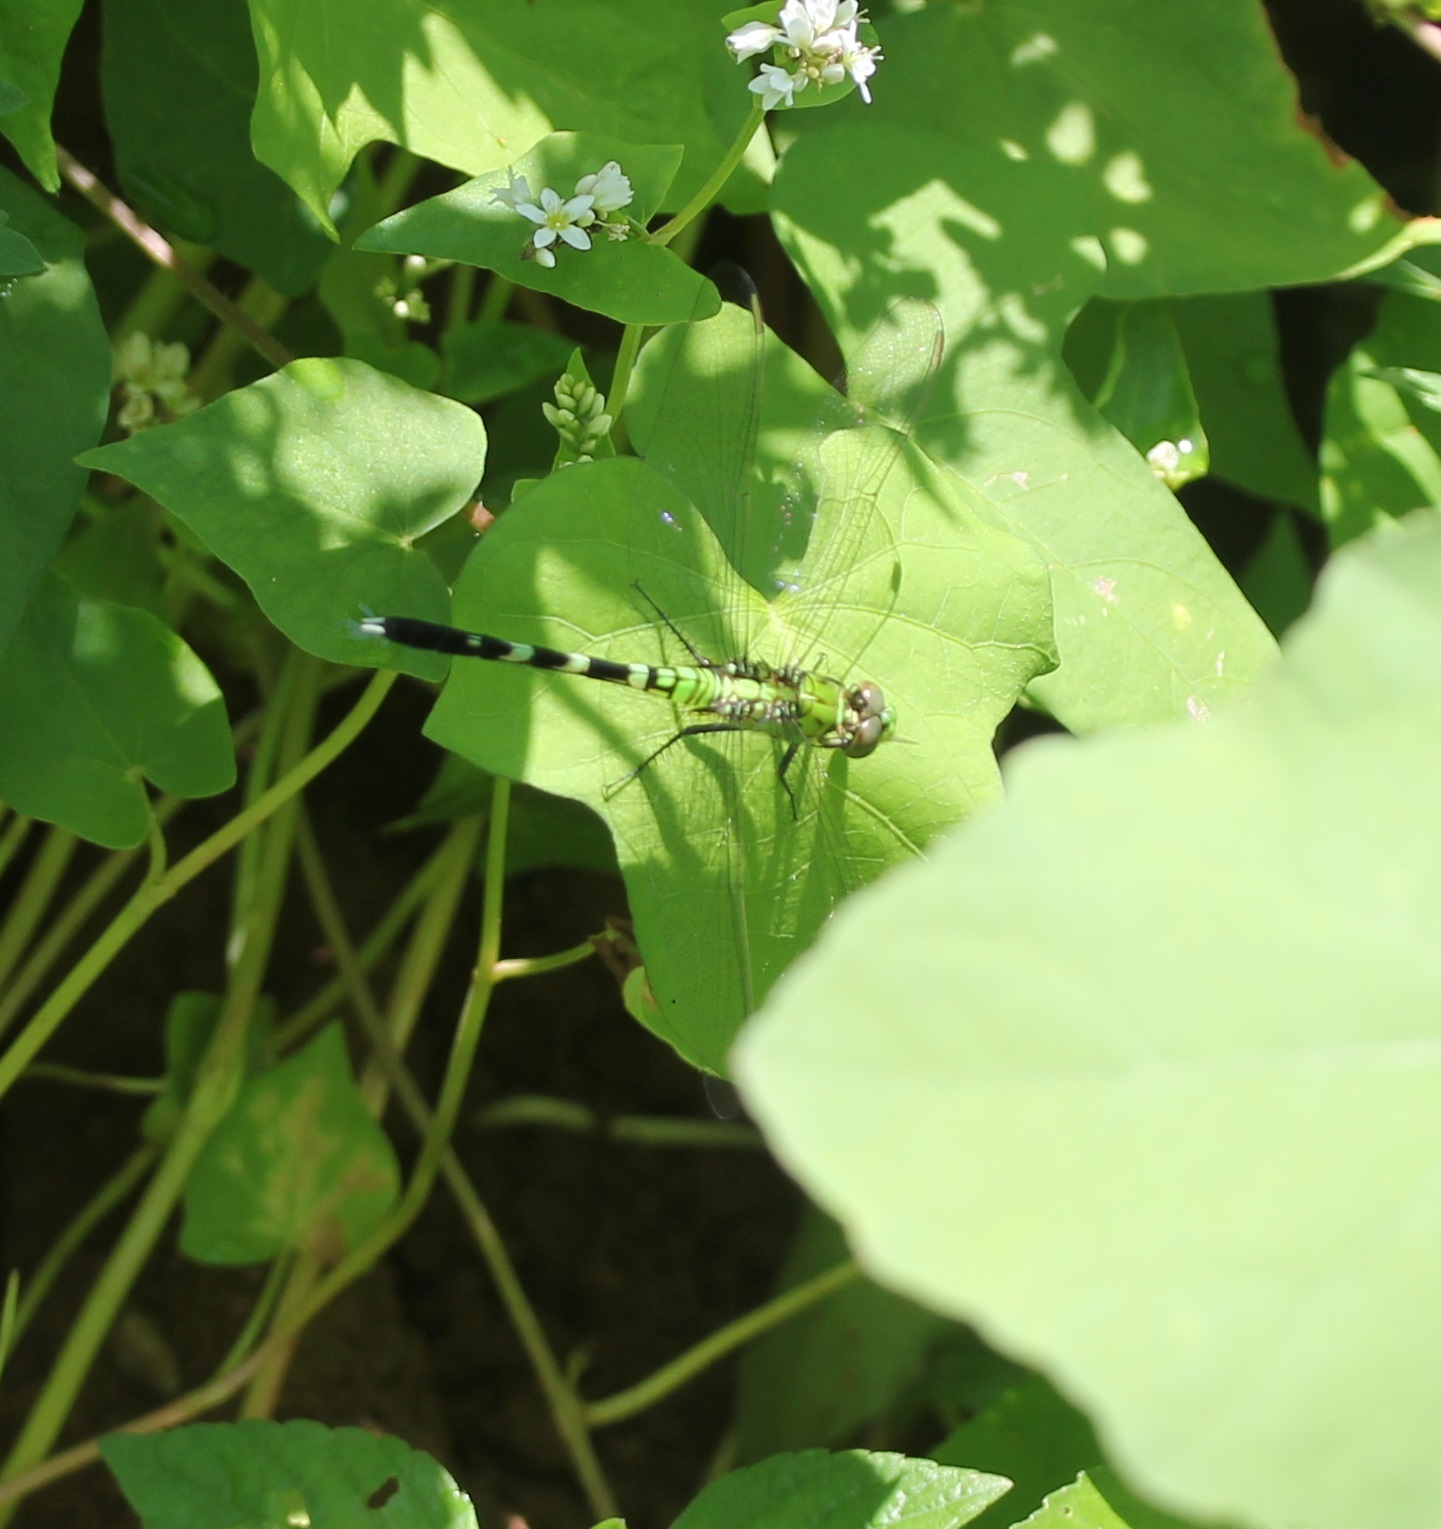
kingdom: Animalia
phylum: Arthropoda
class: Insecta
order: Odonata
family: Libellulidae
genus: Erythemis
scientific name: Erythemis simplicicollis
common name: Eastern pondhawk
